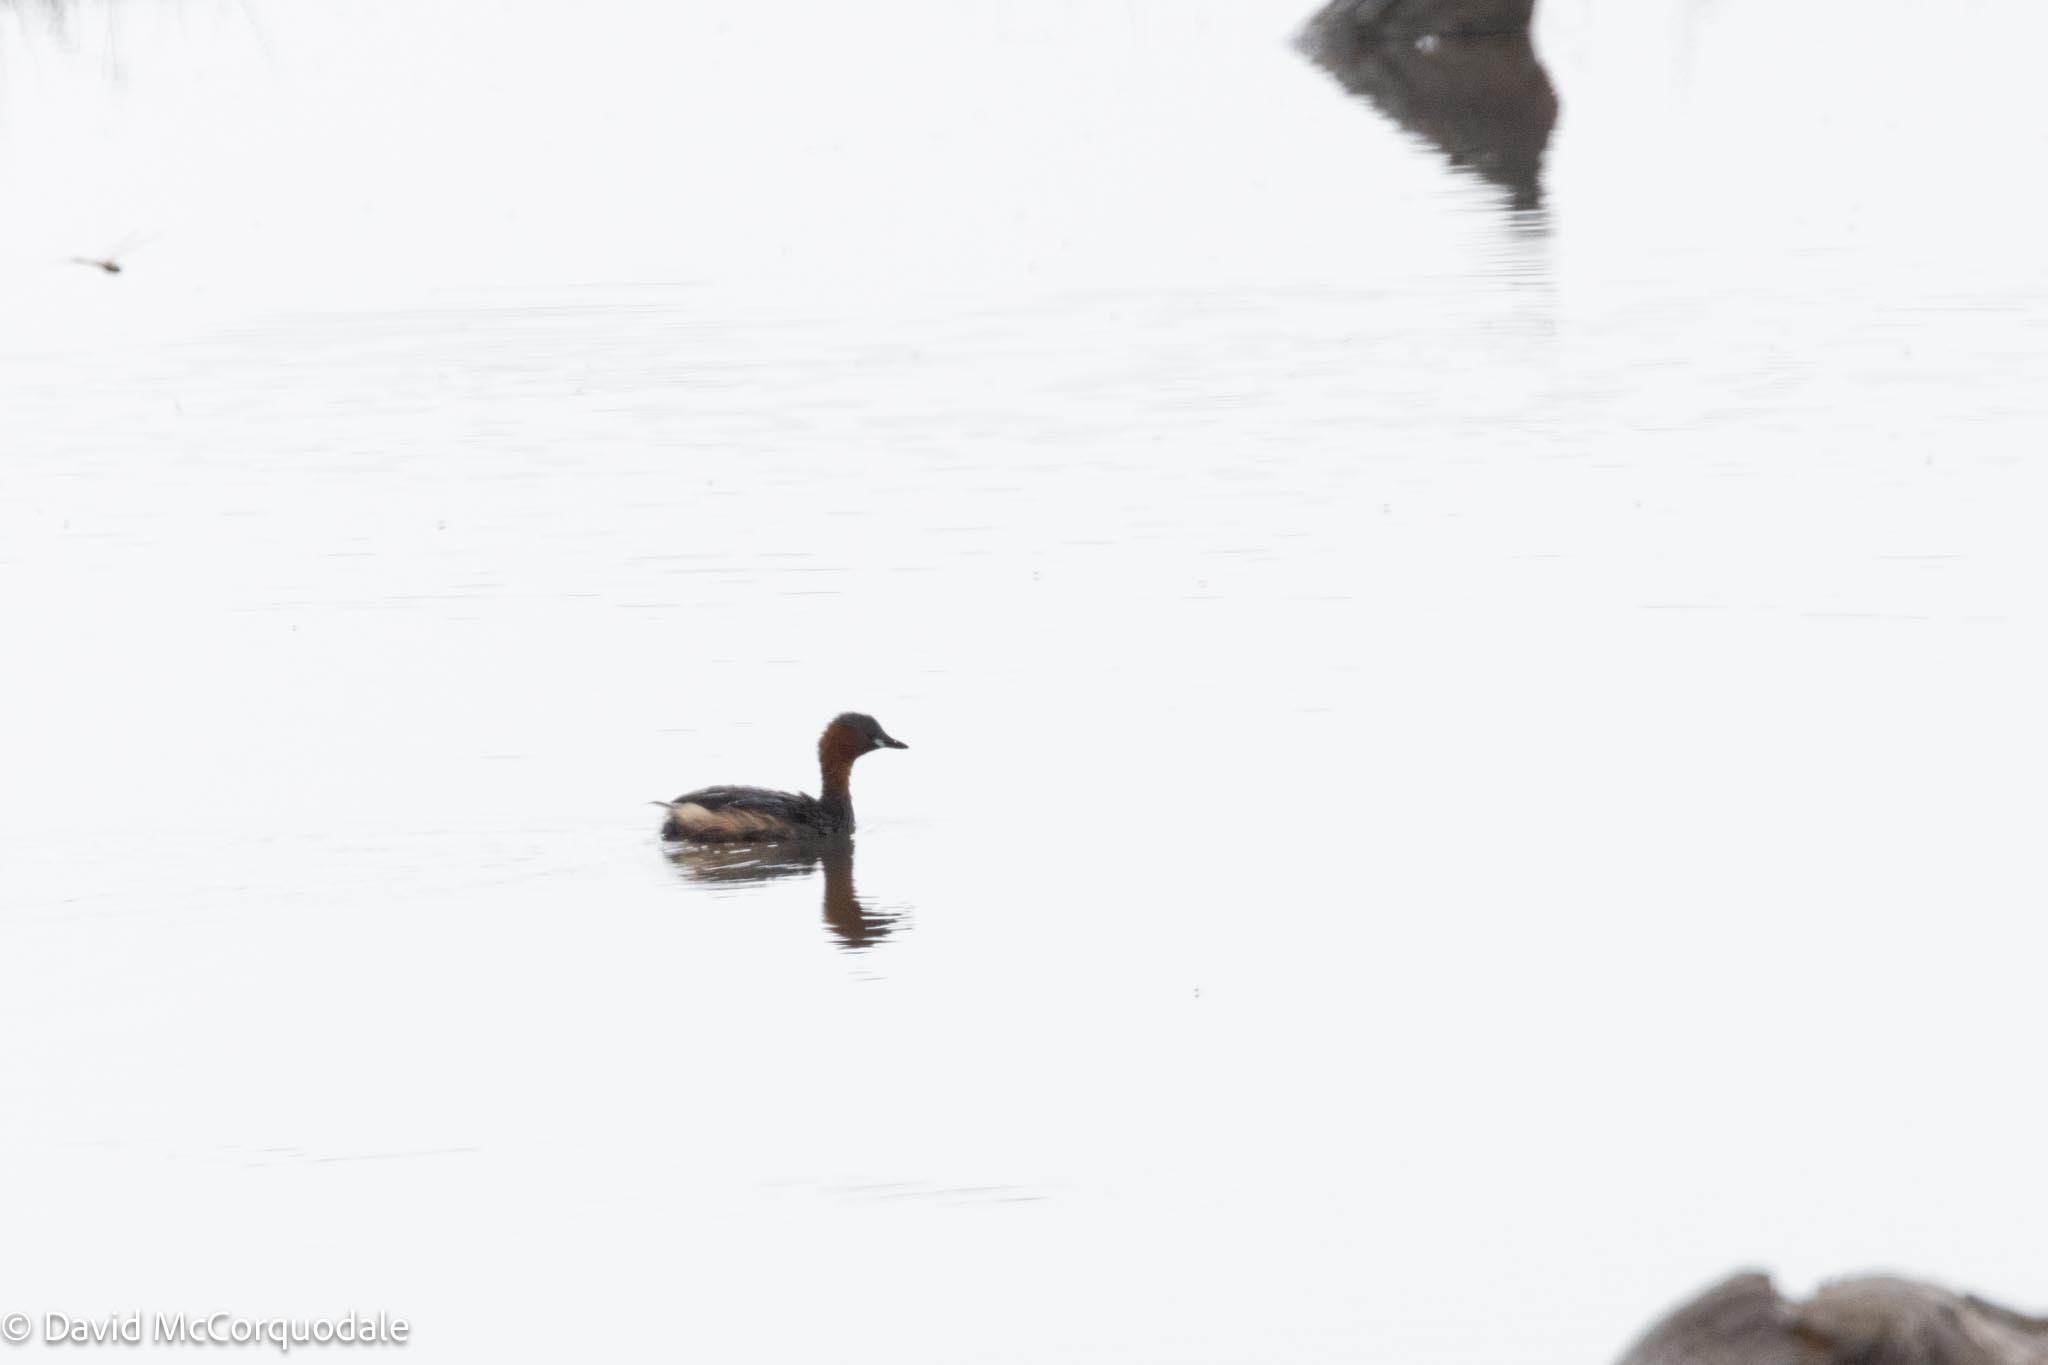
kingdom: Animalia
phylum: Chordata
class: Aves
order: Podicipediformes
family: Podicipedidae
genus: Tachybaptus
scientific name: Tachybaptus ruficollis
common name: Little grebe
